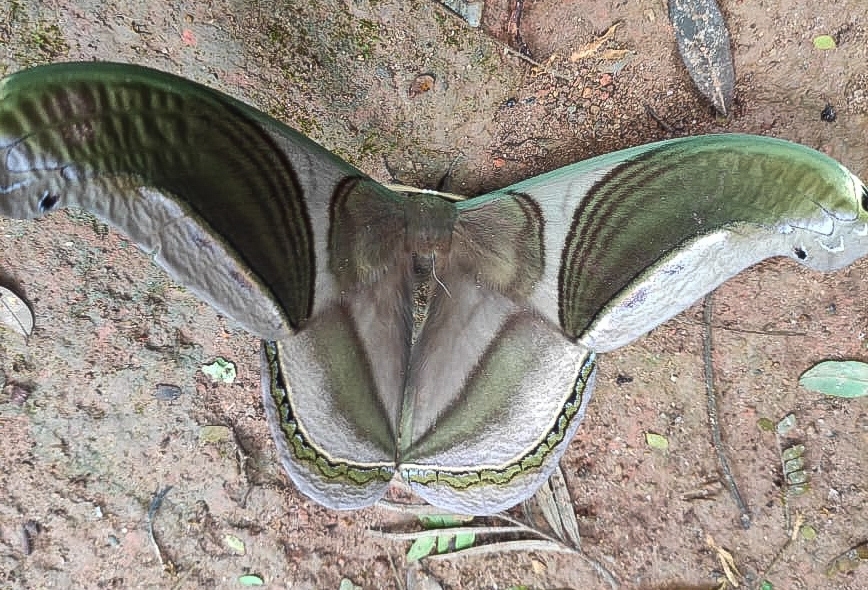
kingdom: Animalia
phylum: Arthropoda
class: Insecta
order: Lepidoptera
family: Saturniidae
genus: Rhescyntis
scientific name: Rhescyntis pseudomartii
